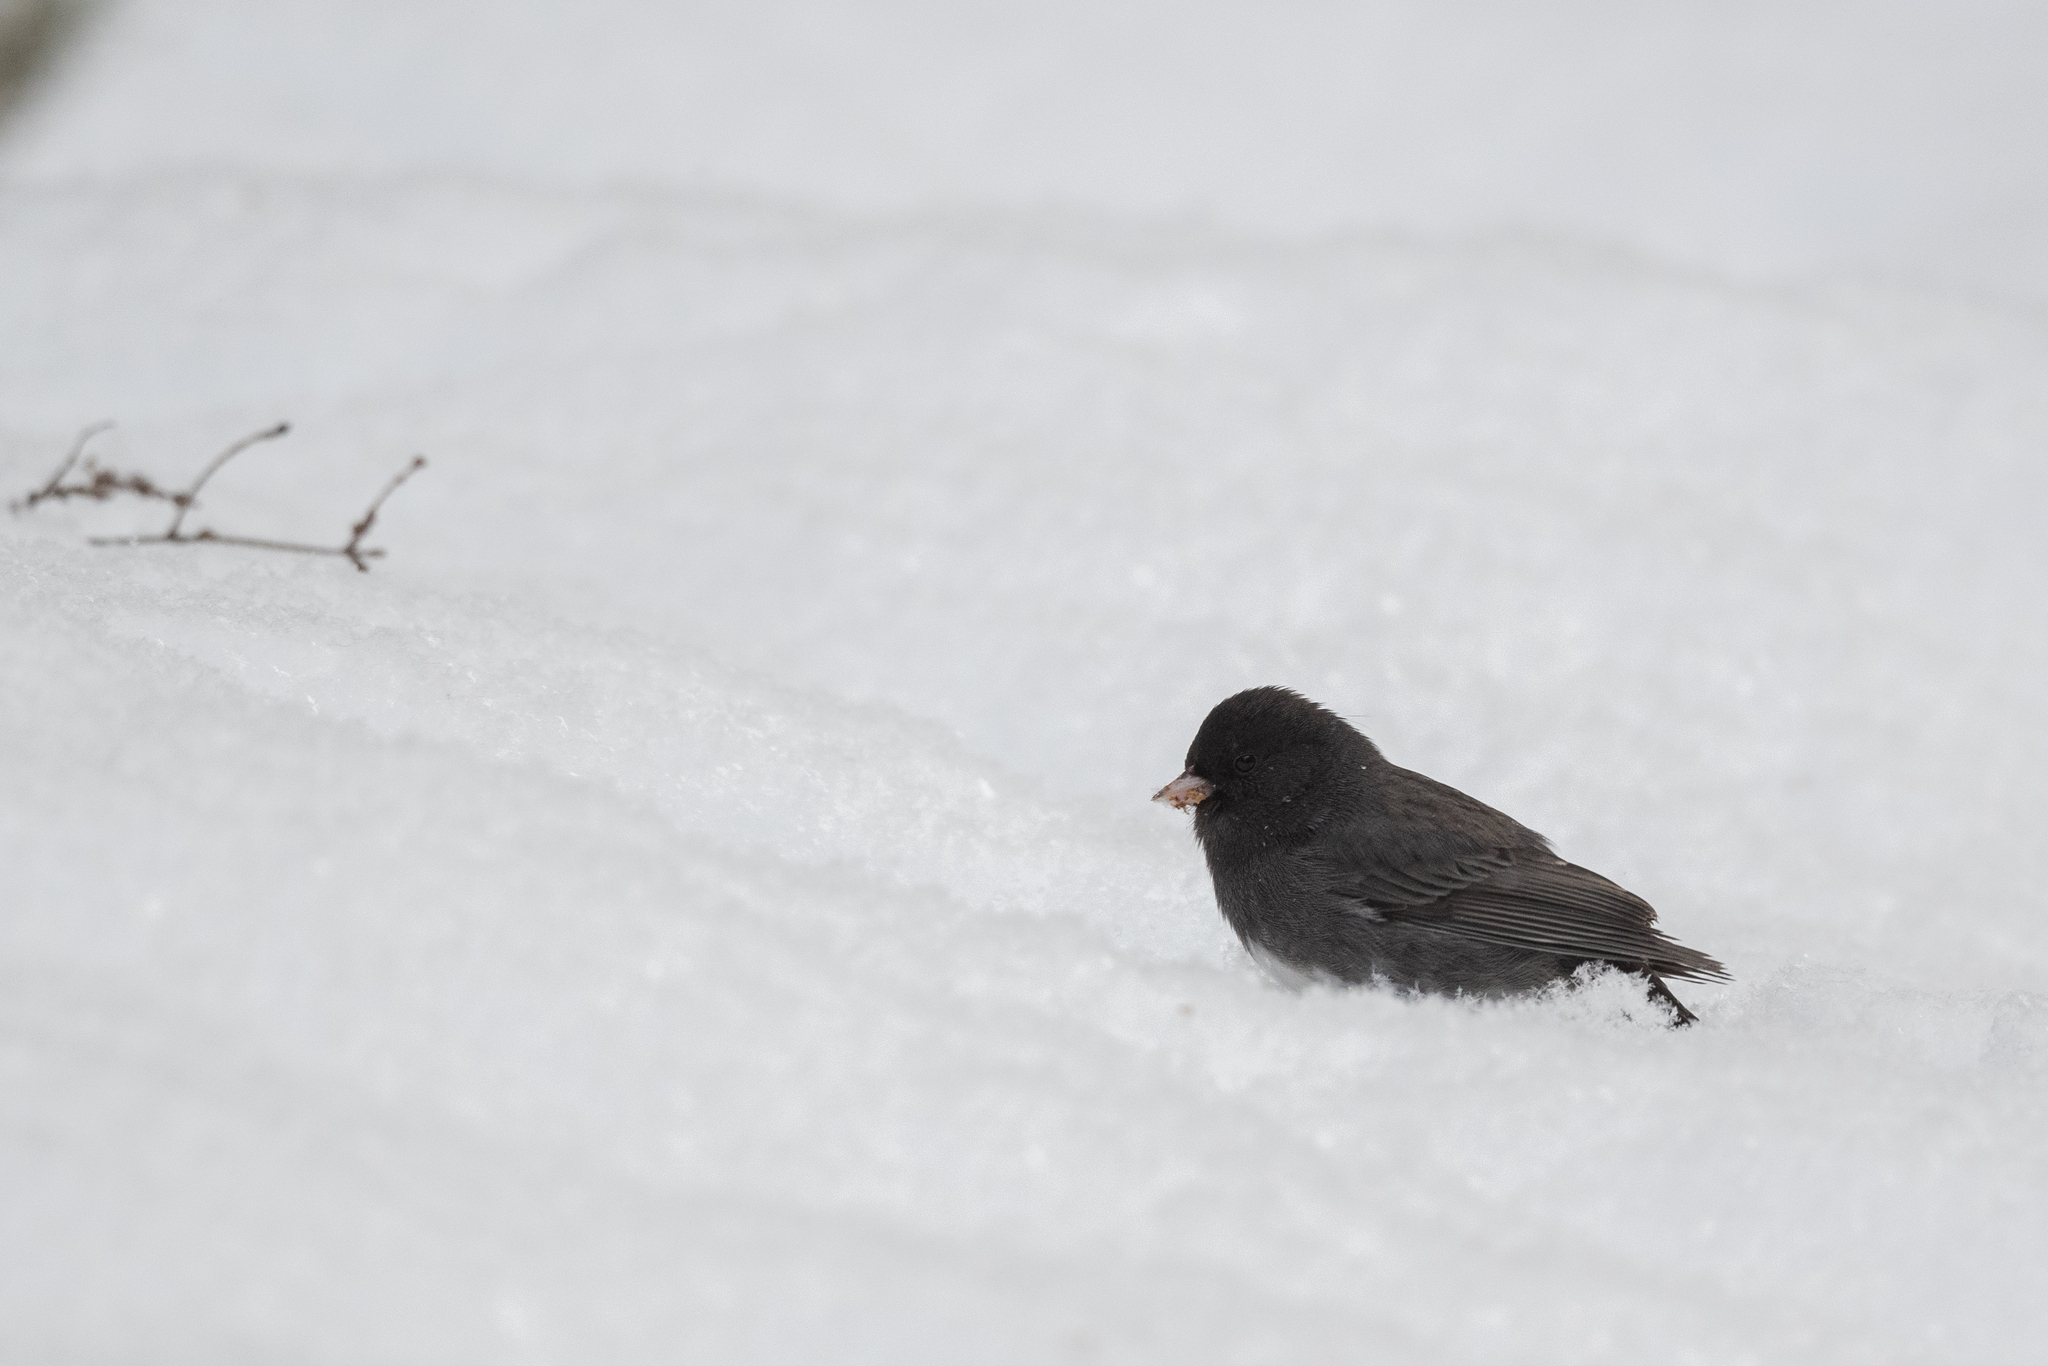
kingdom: Animalia
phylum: Chordata
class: Aves
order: Passeriformes
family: Passerellidae
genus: Junco
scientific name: Junco hyemalis
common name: Dark-eyed junco
